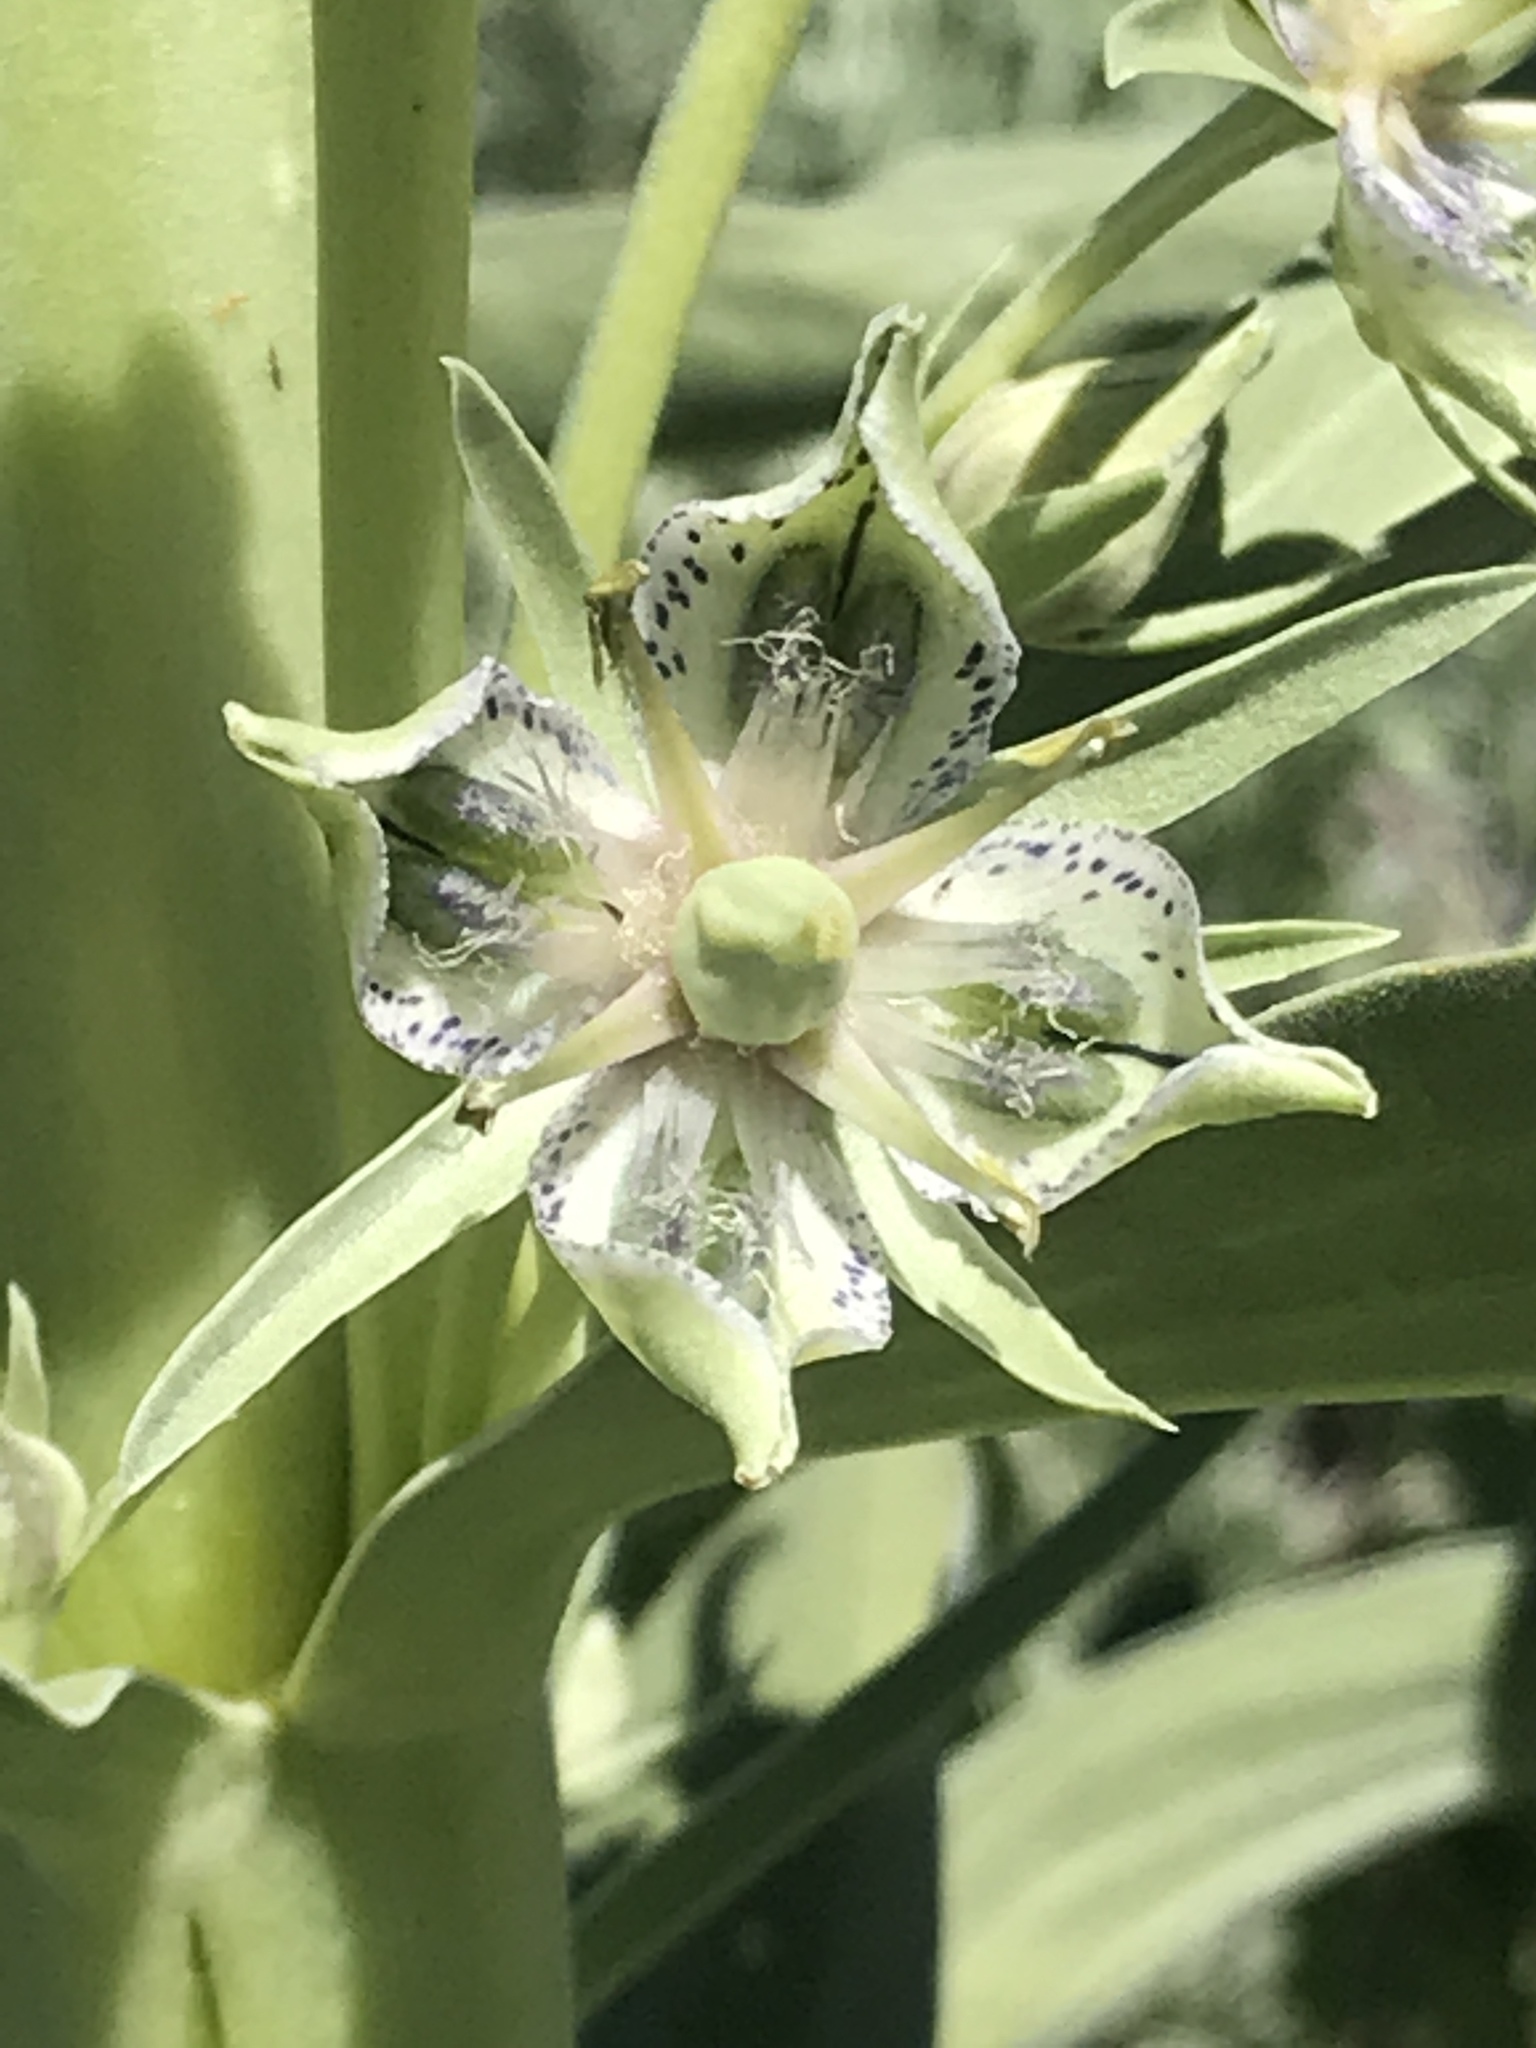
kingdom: Plantae
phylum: Tracheophyta
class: Magnoliopsida
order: Gentianales
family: Gentianaceae
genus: Frasera
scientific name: Frasera speciosa
